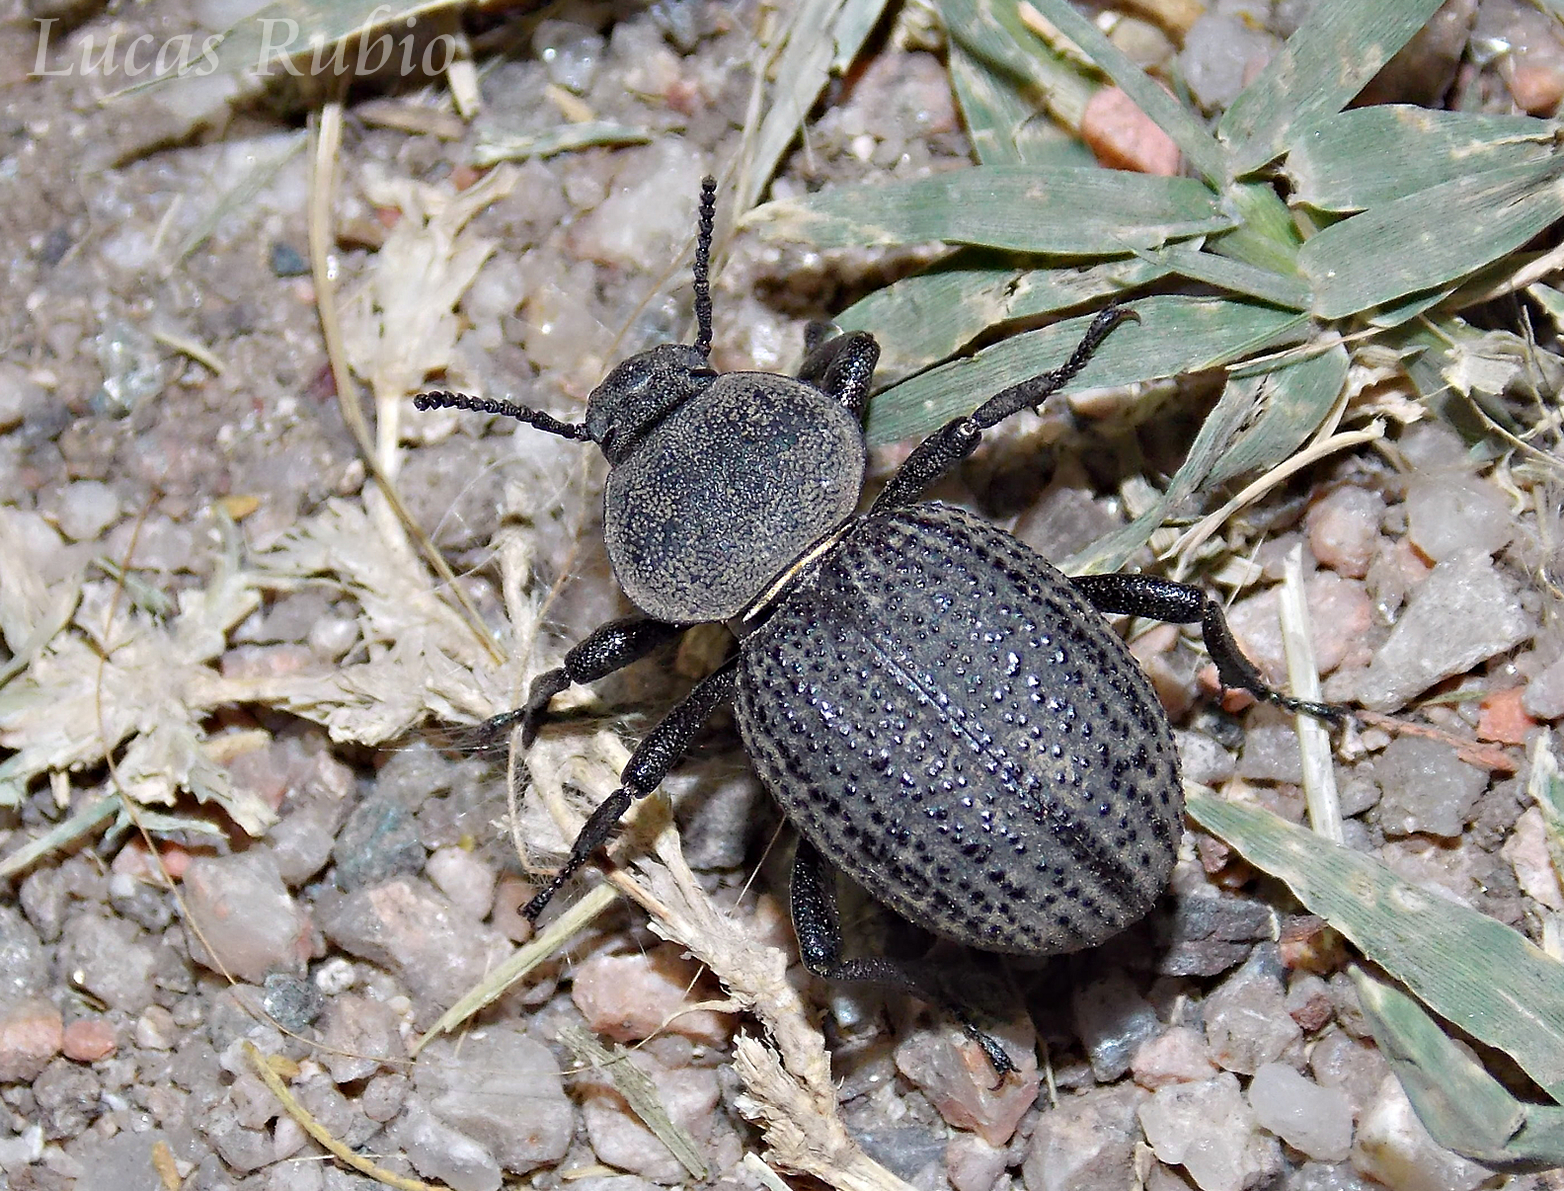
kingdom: Animalia
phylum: Arthropoda
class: Insecta
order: Coleoptera
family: Tenebrionidae
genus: Scotobius
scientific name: Scotobius
